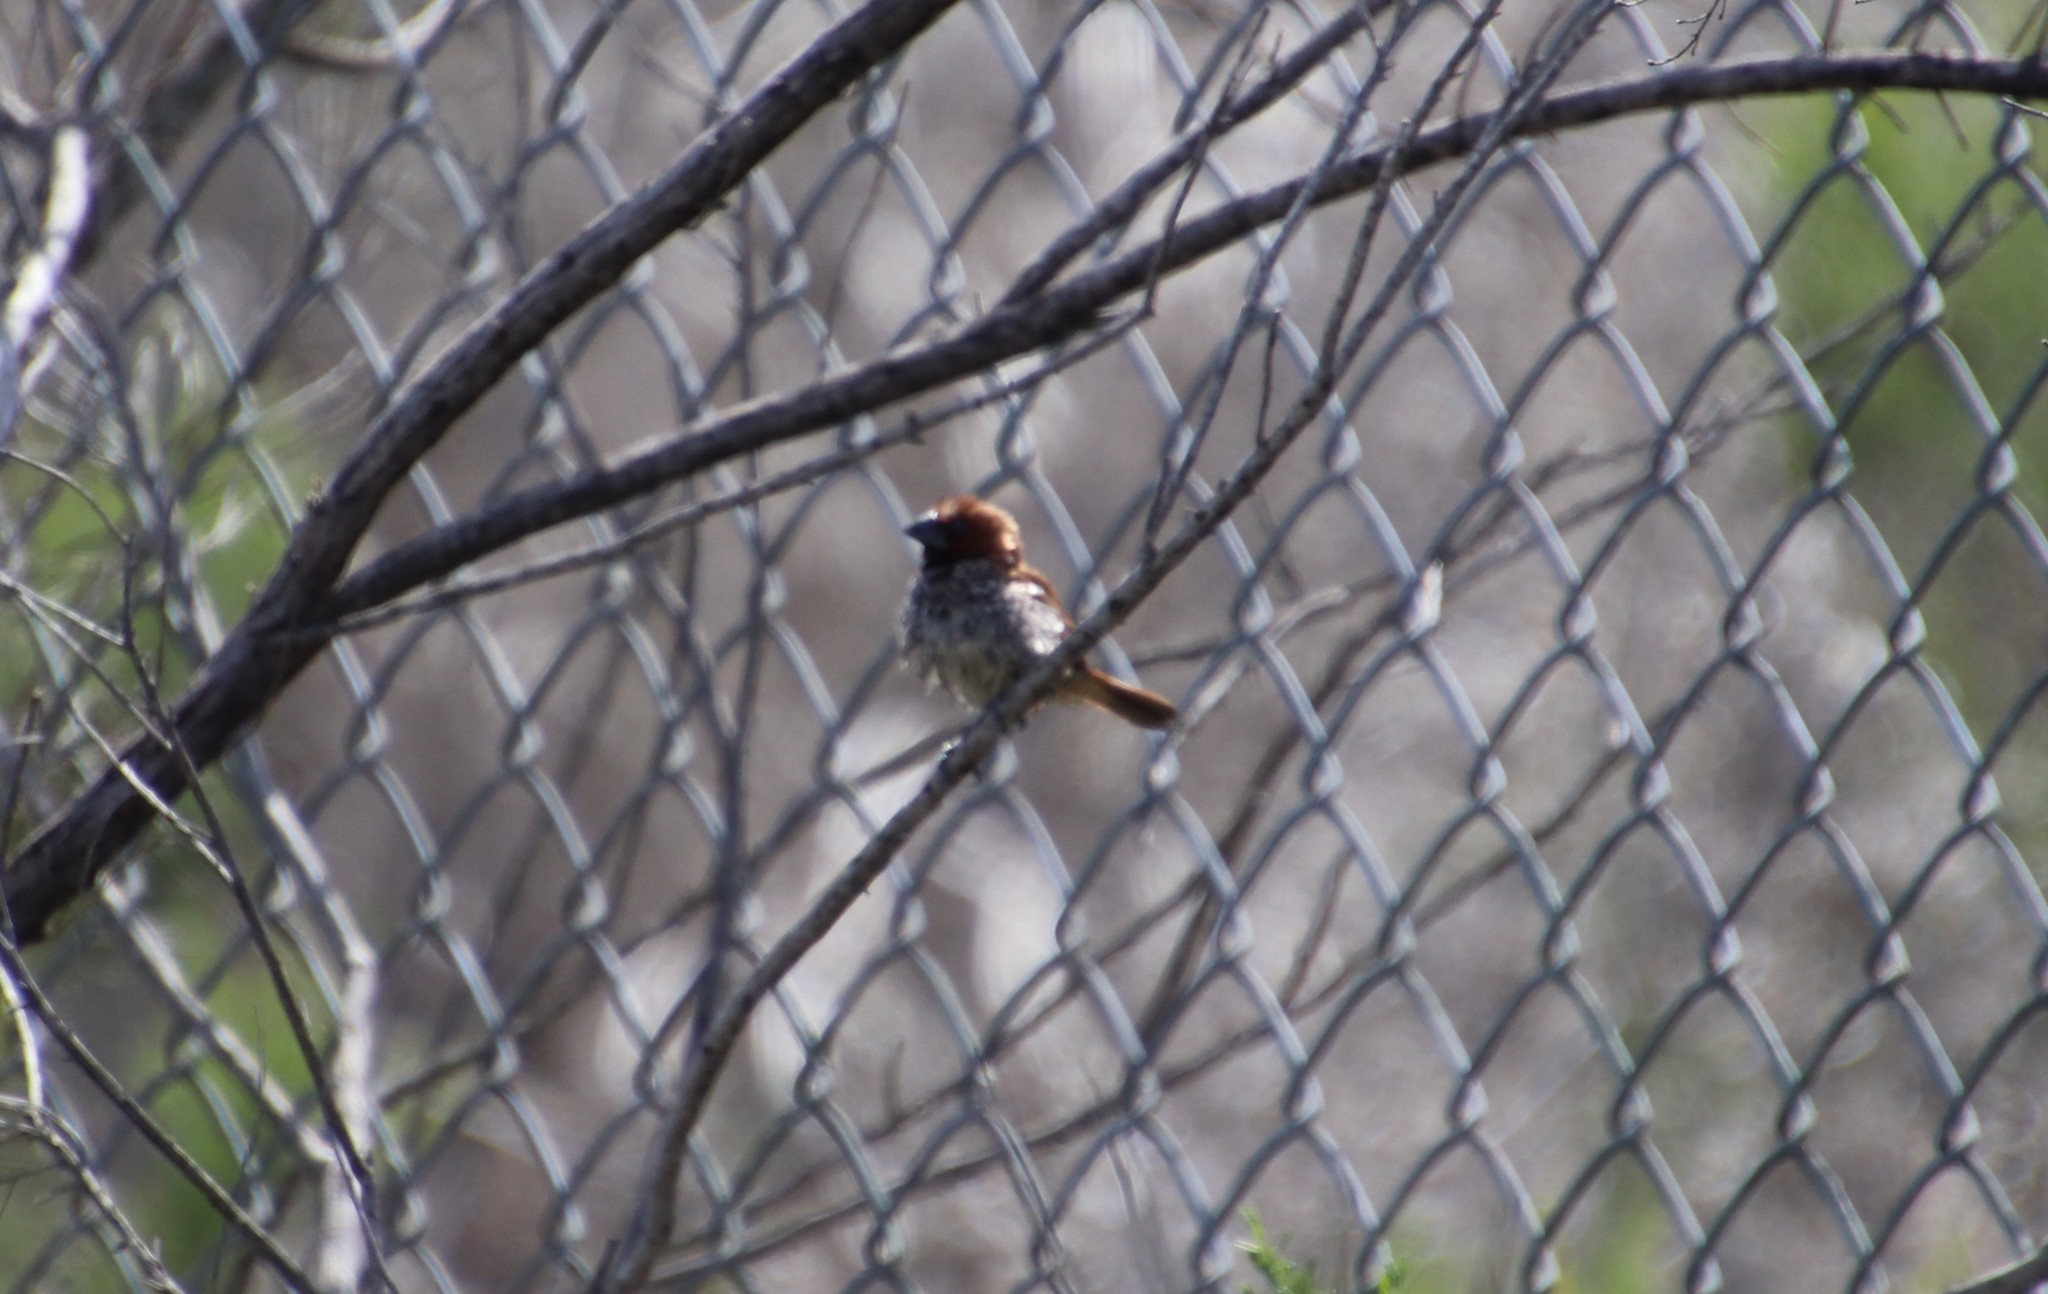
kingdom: Animalia
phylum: Chordata
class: Aves
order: Passeriformes
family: Estrildidae
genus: Lonchura
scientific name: Lonchura punctulata
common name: Scaly-breasted munia
